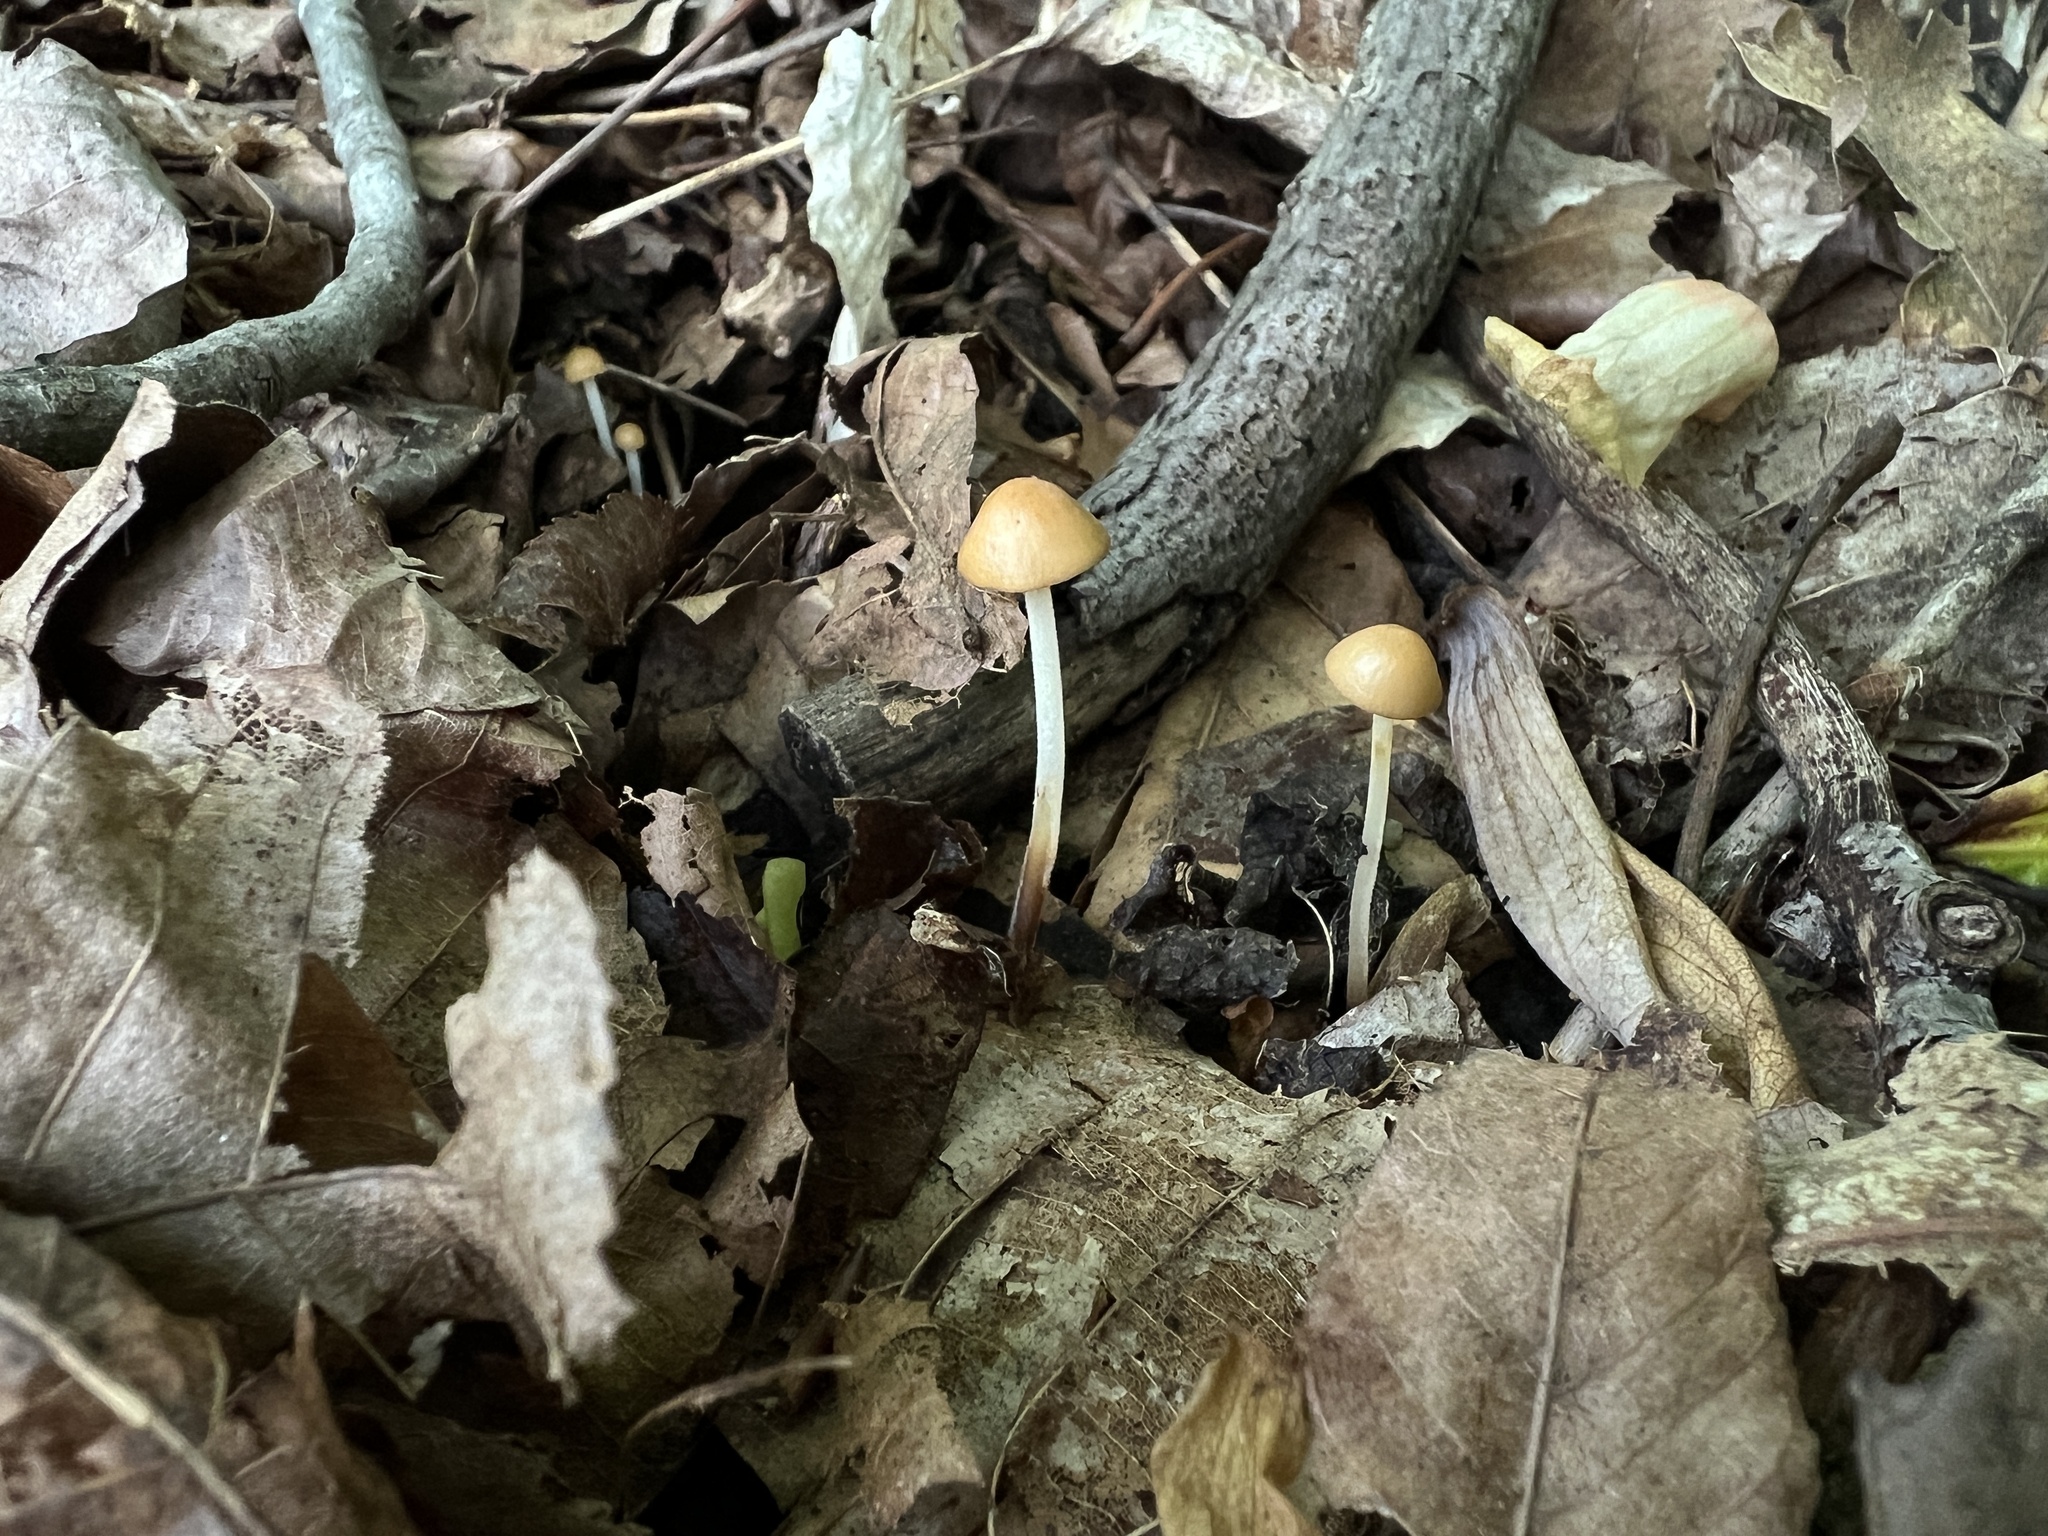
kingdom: Fungi
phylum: Basidiomycota
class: Agaricomycetes
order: Agaricales
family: Physalacriaceae
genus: Rhizomarasmius
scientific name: Rhizomarasmius pyrrhocephalus
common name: Hairy long stem marasmius
